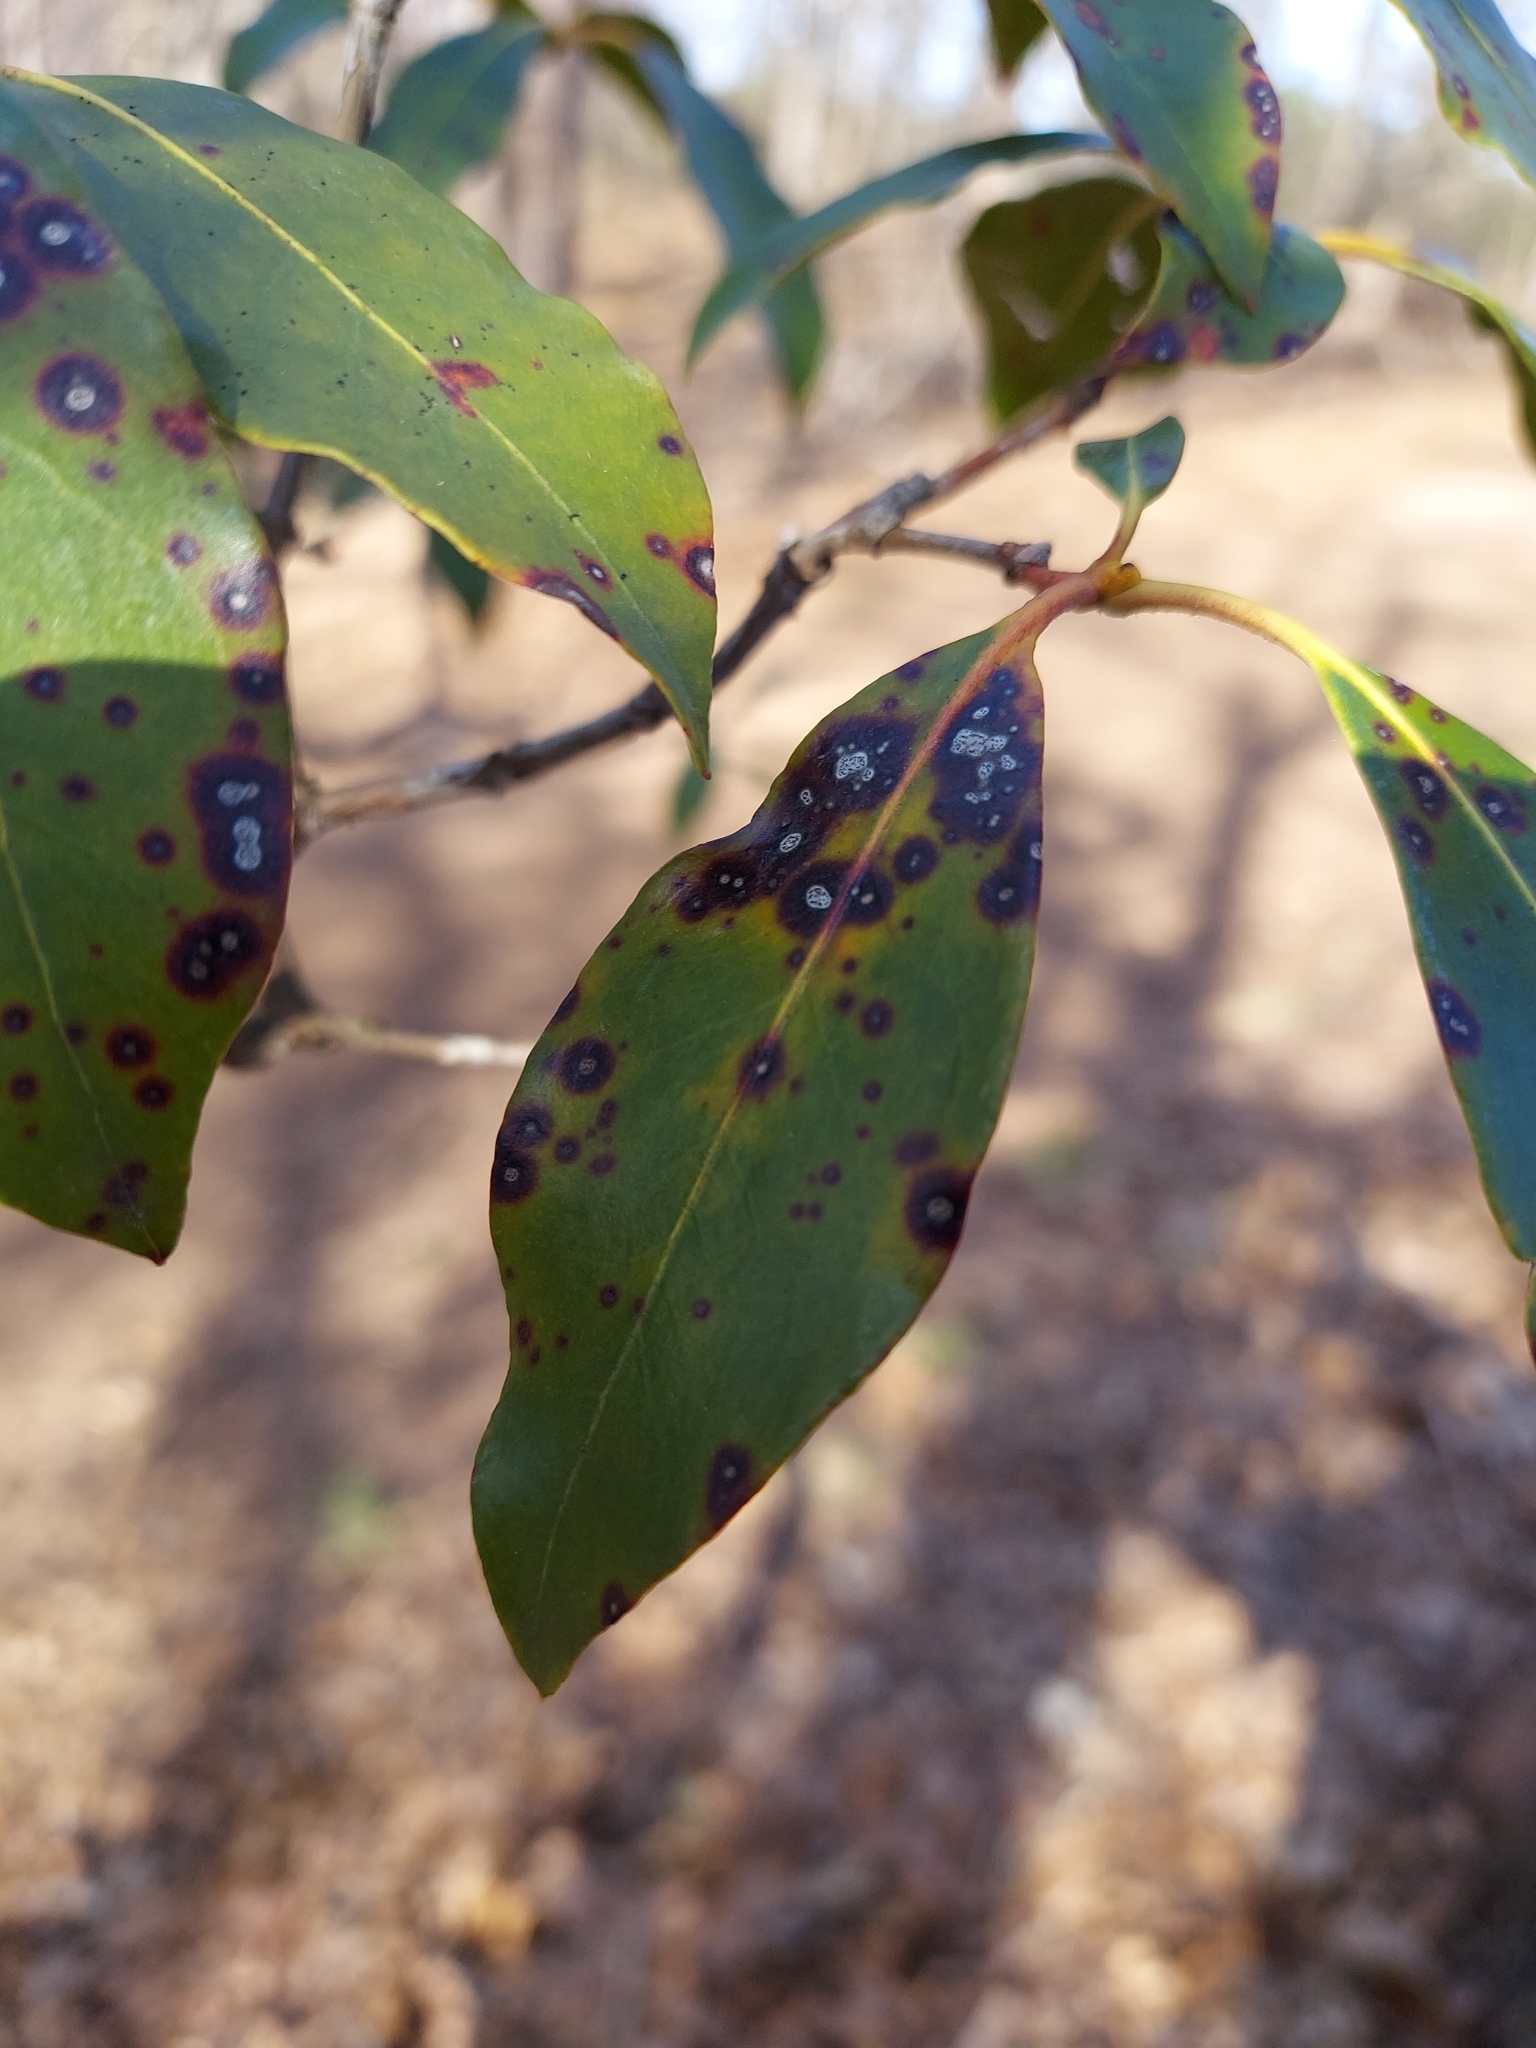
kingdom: Fungi
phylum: Ascomycota
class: Dothideomycetes
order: Mycosphaerellales
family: Mycosphaerellaceae
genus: Mycosphaerella
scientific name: Mycosphaerella colorata
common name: Mountain laurel leaf spot
